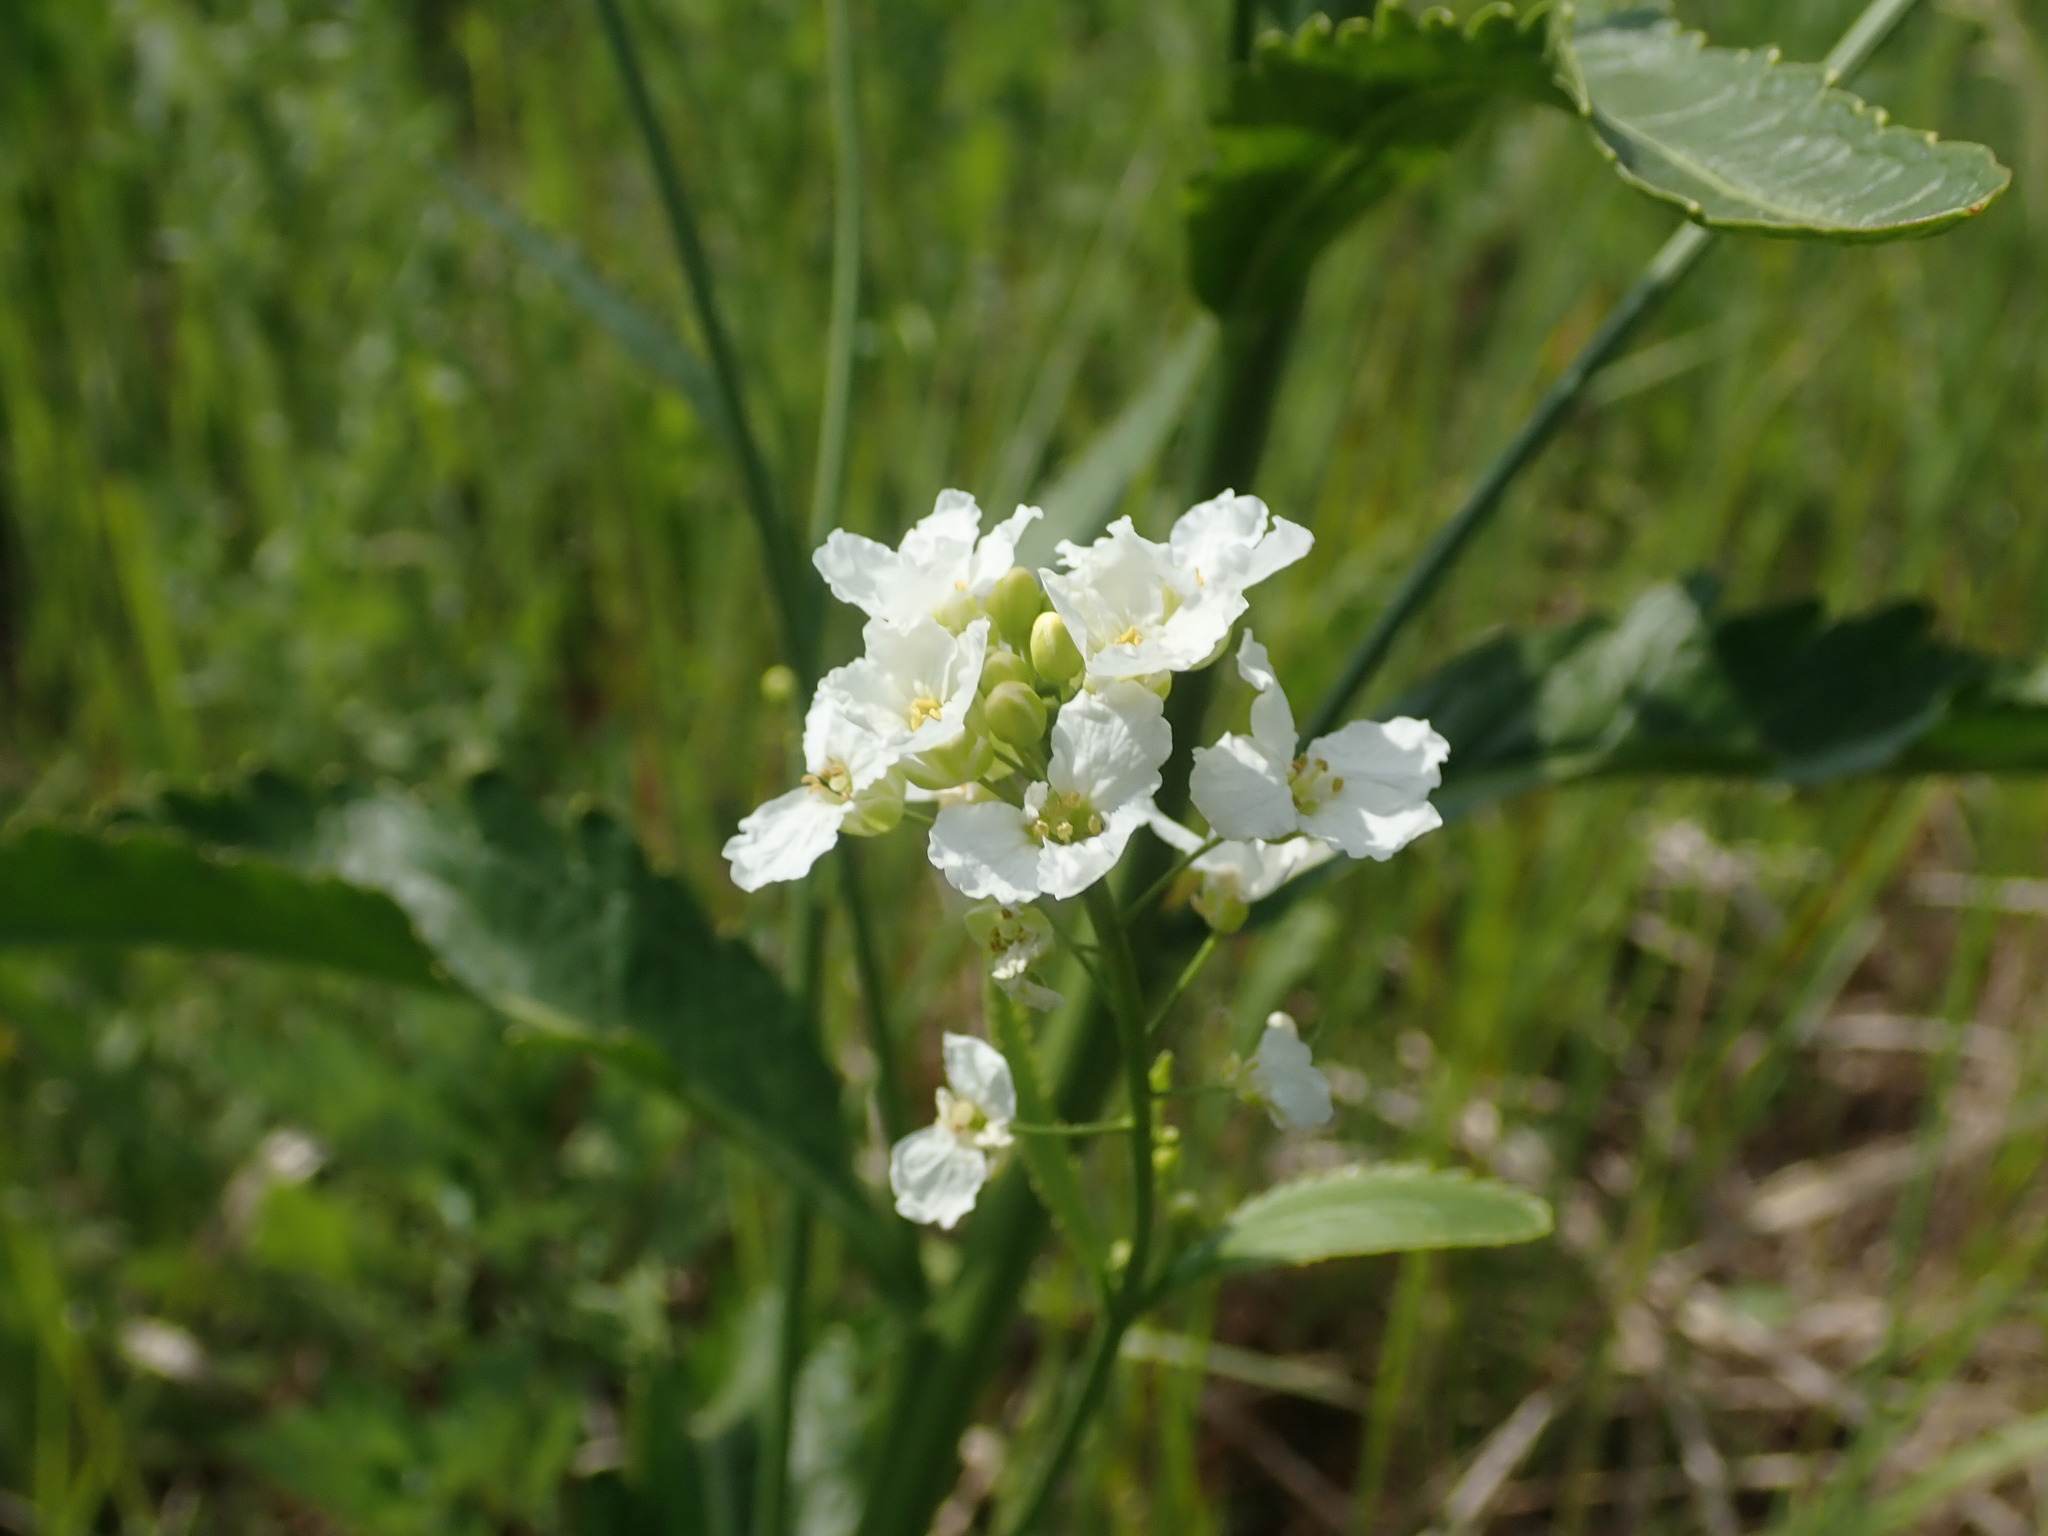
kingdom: Plantae
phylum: Tracheophyta
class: Magnoliopsida
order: Brassicales
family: Brassicaceae
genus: Armoracia
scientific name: Armoracia rusticana
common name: Horseradish
